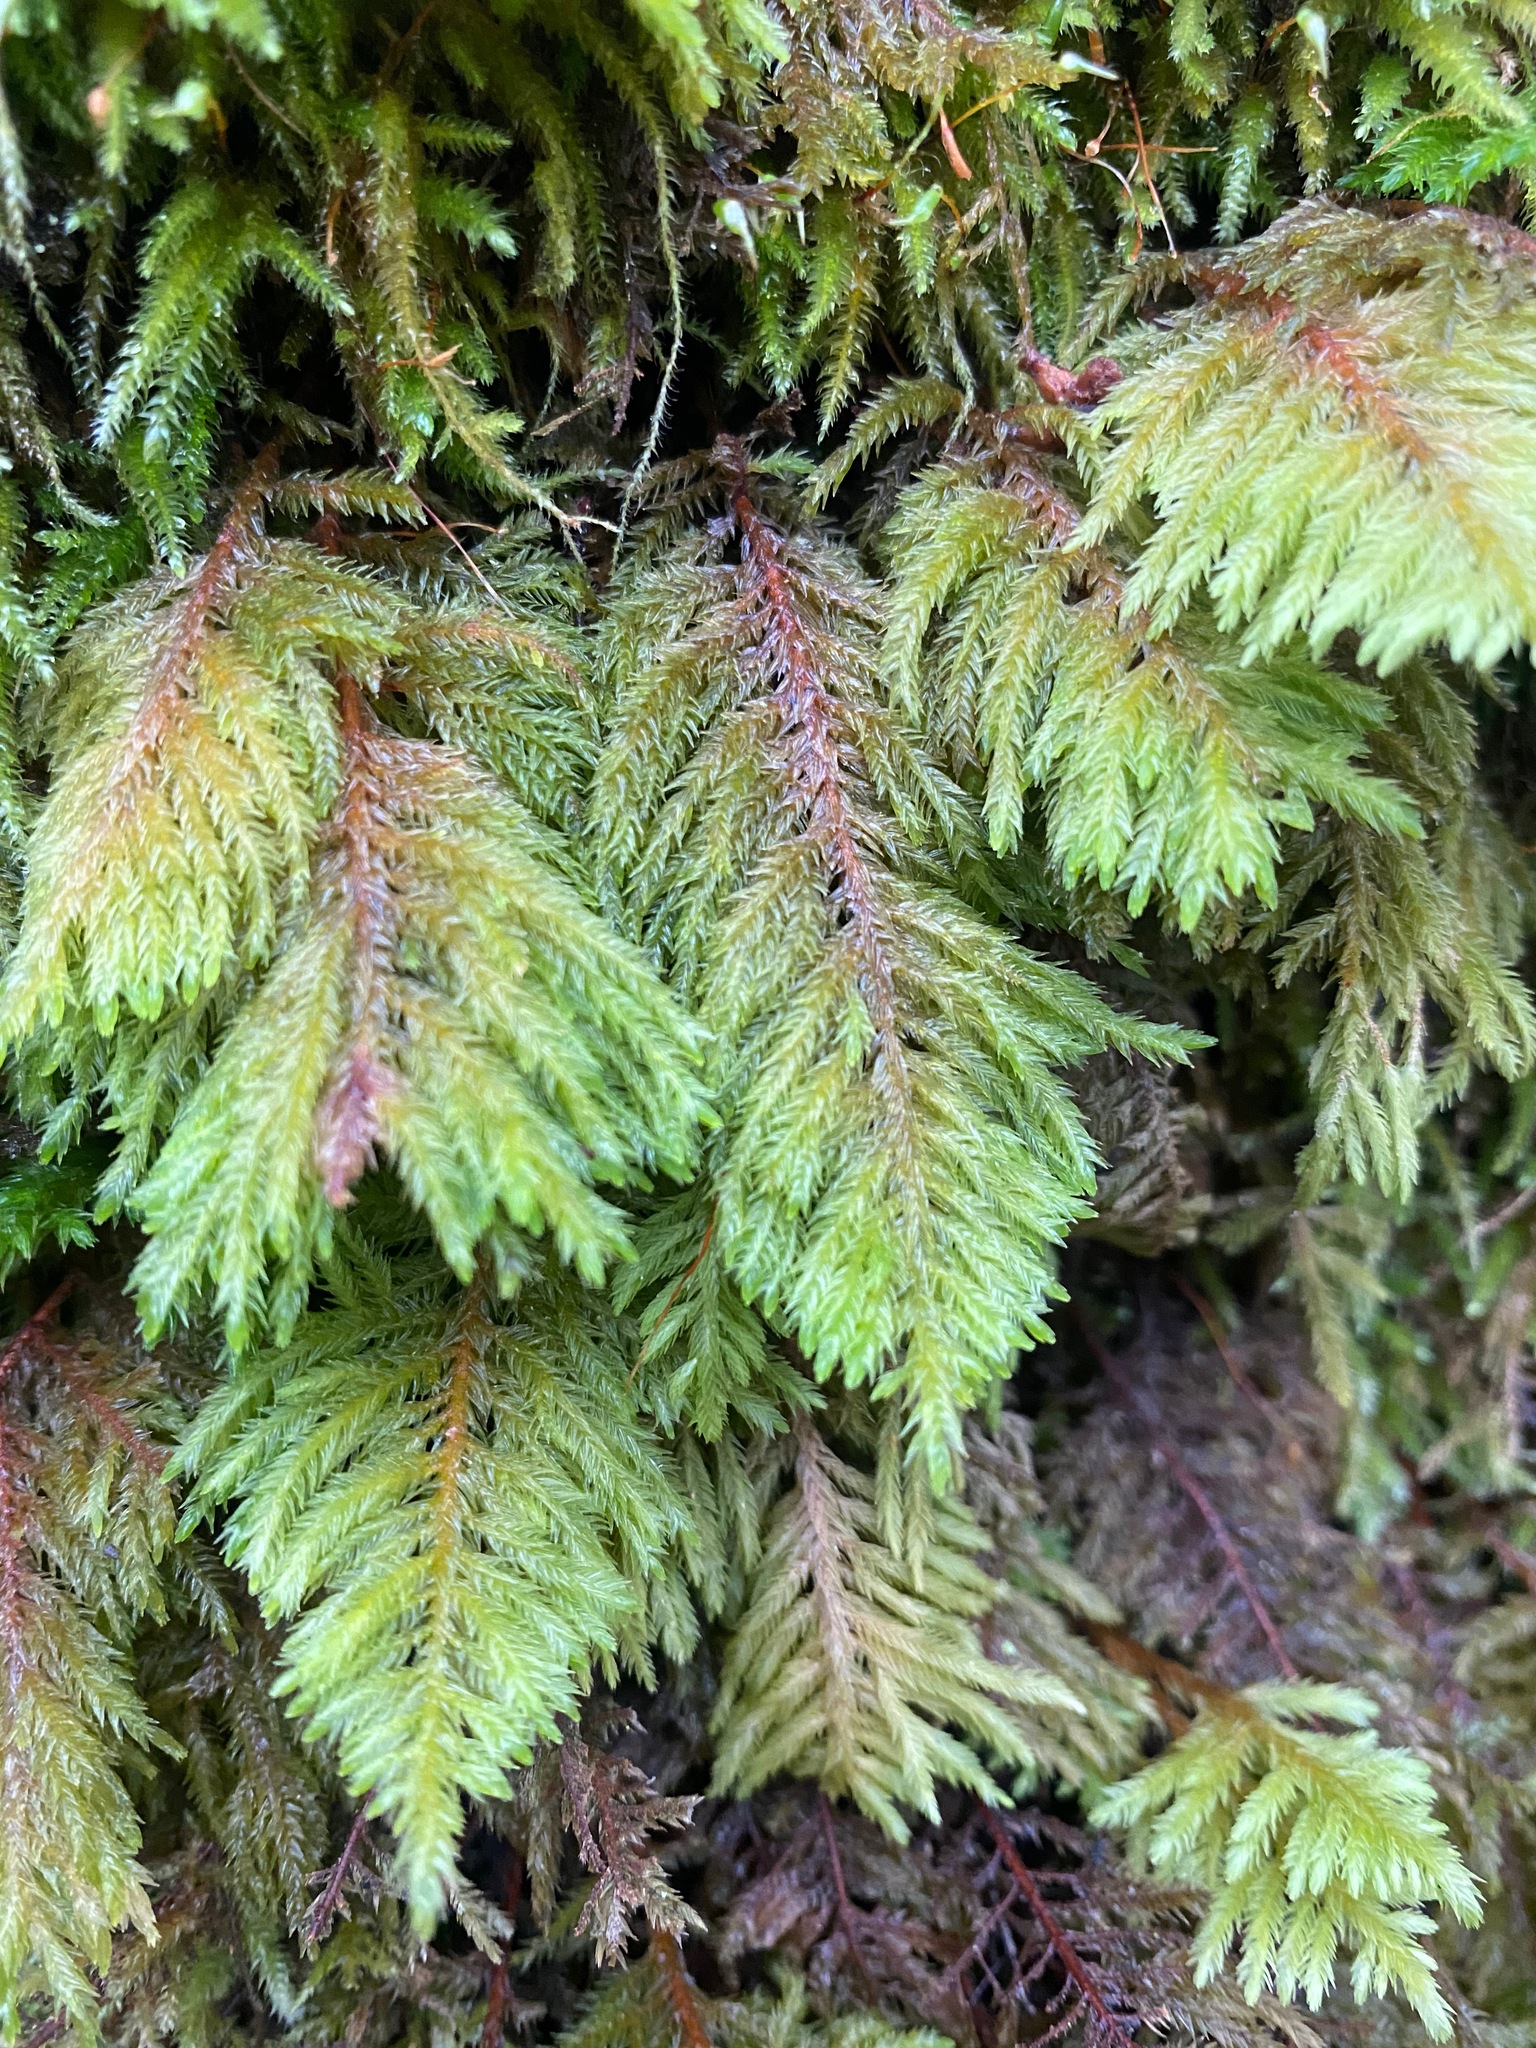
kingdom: Plantae
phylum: Bryophyta
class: Bryopsida
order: Hypnales
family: Cryphaeaceae
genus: Dendroalsia
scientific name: Dendroalsia abietina
